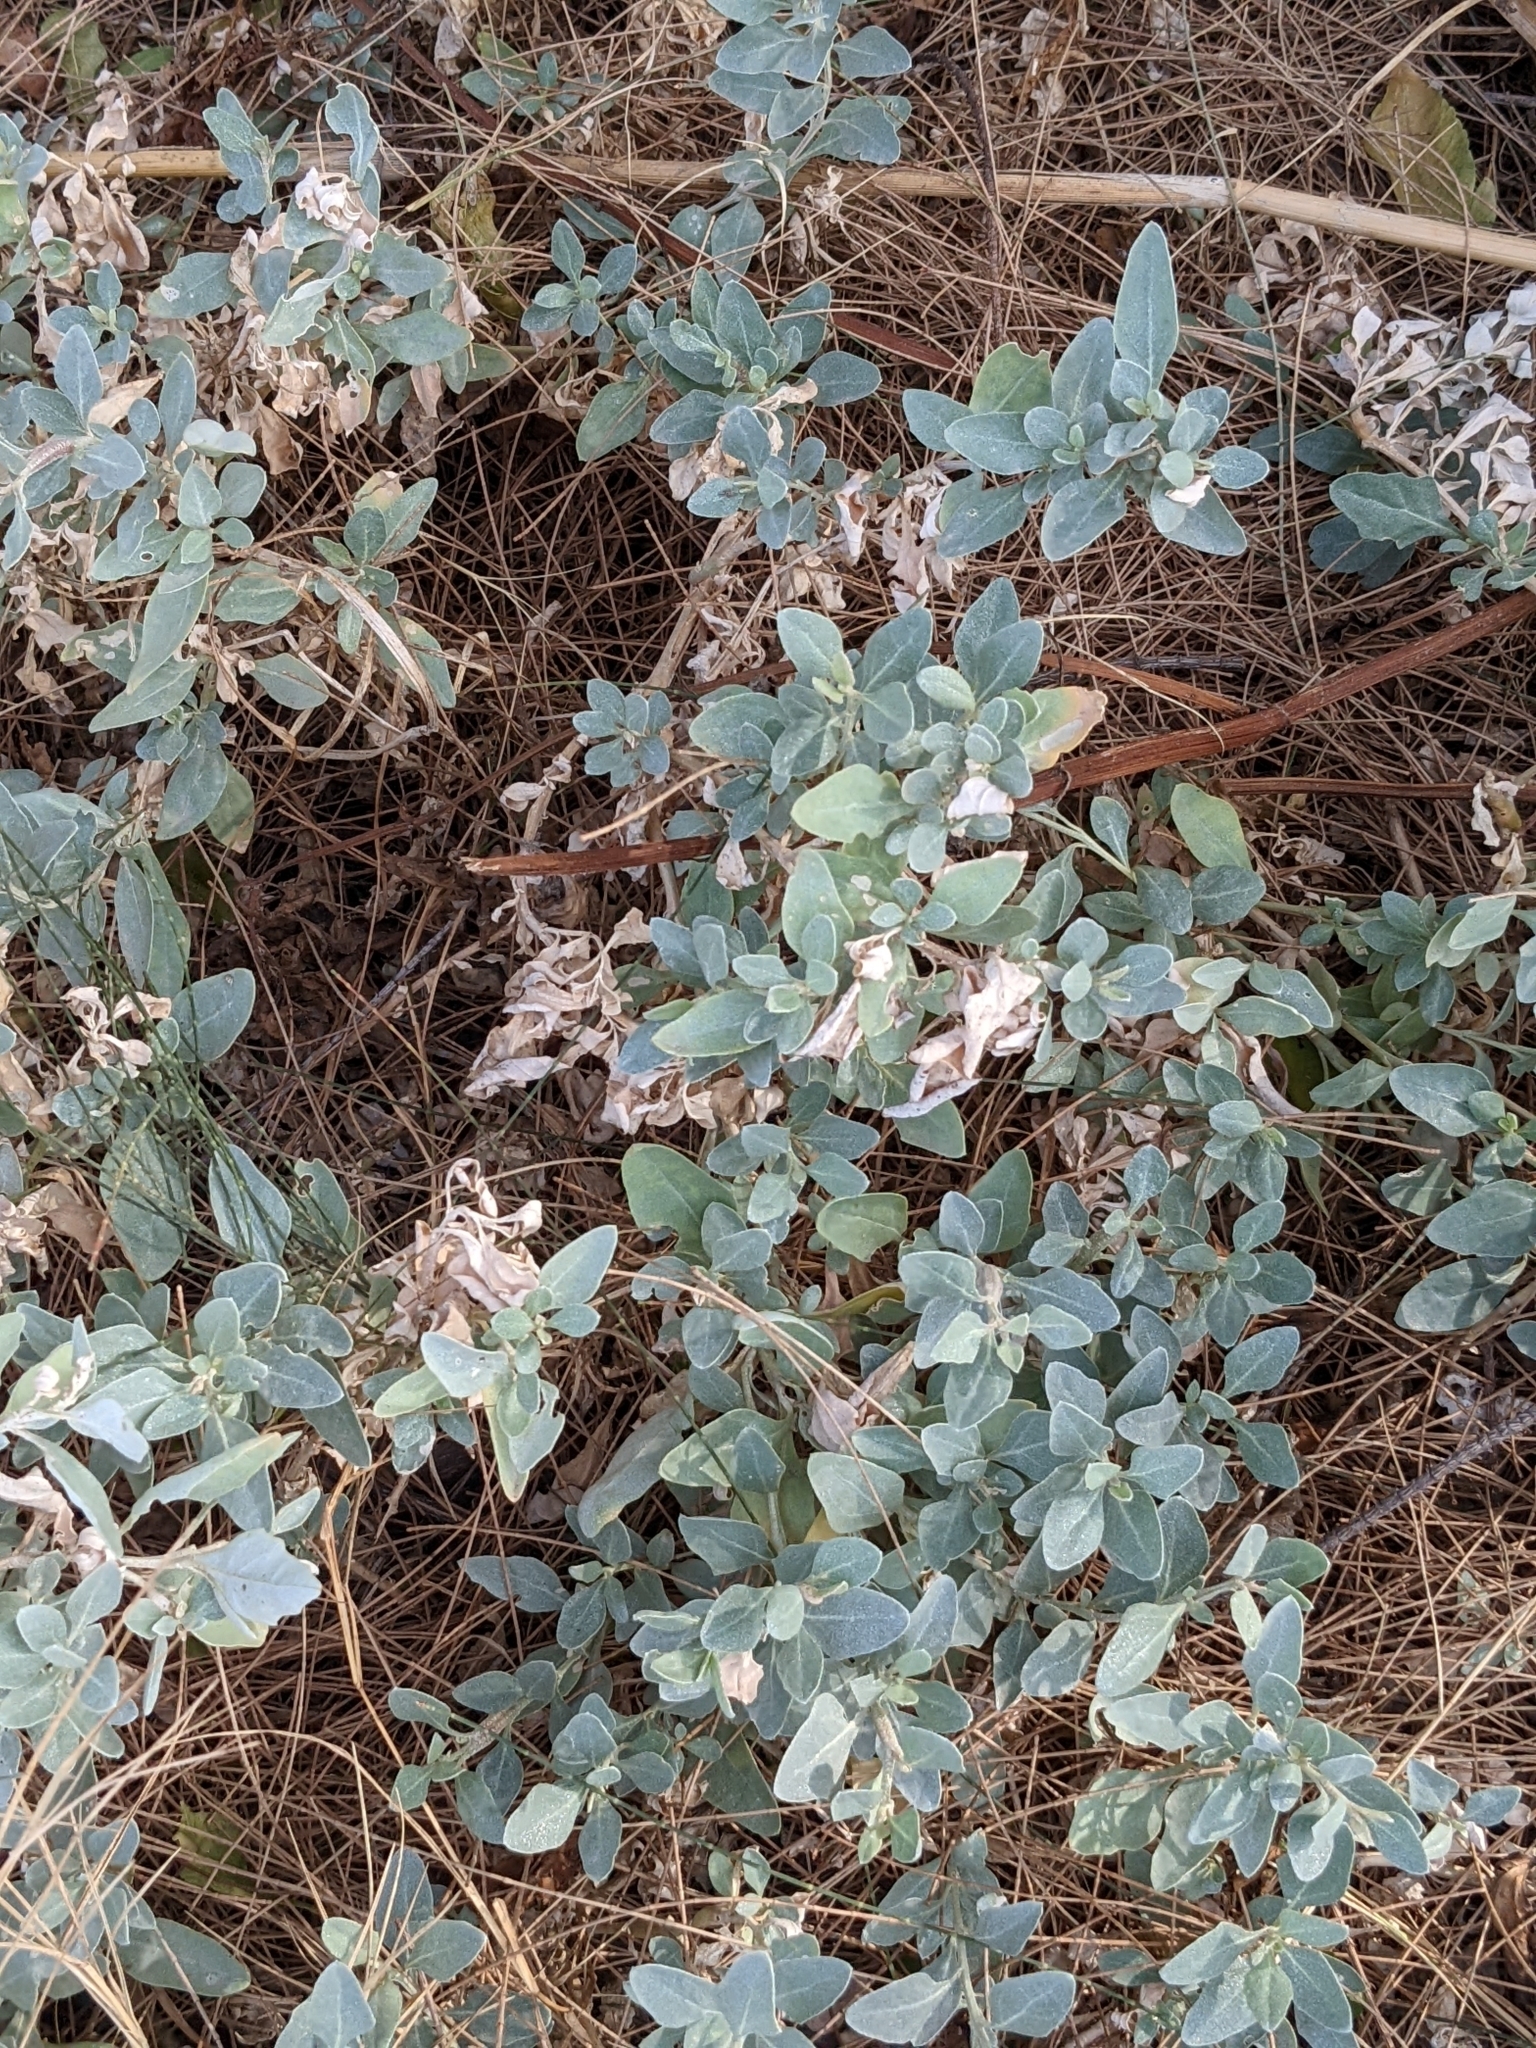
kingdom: Plantae
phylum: Tracheophyta
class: Magnoliopsida
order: Caryophyllales
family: Amaranthaceae
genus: Atriplex
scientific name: Atriplex maximowicziana
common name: Maximowicz's saltbush
